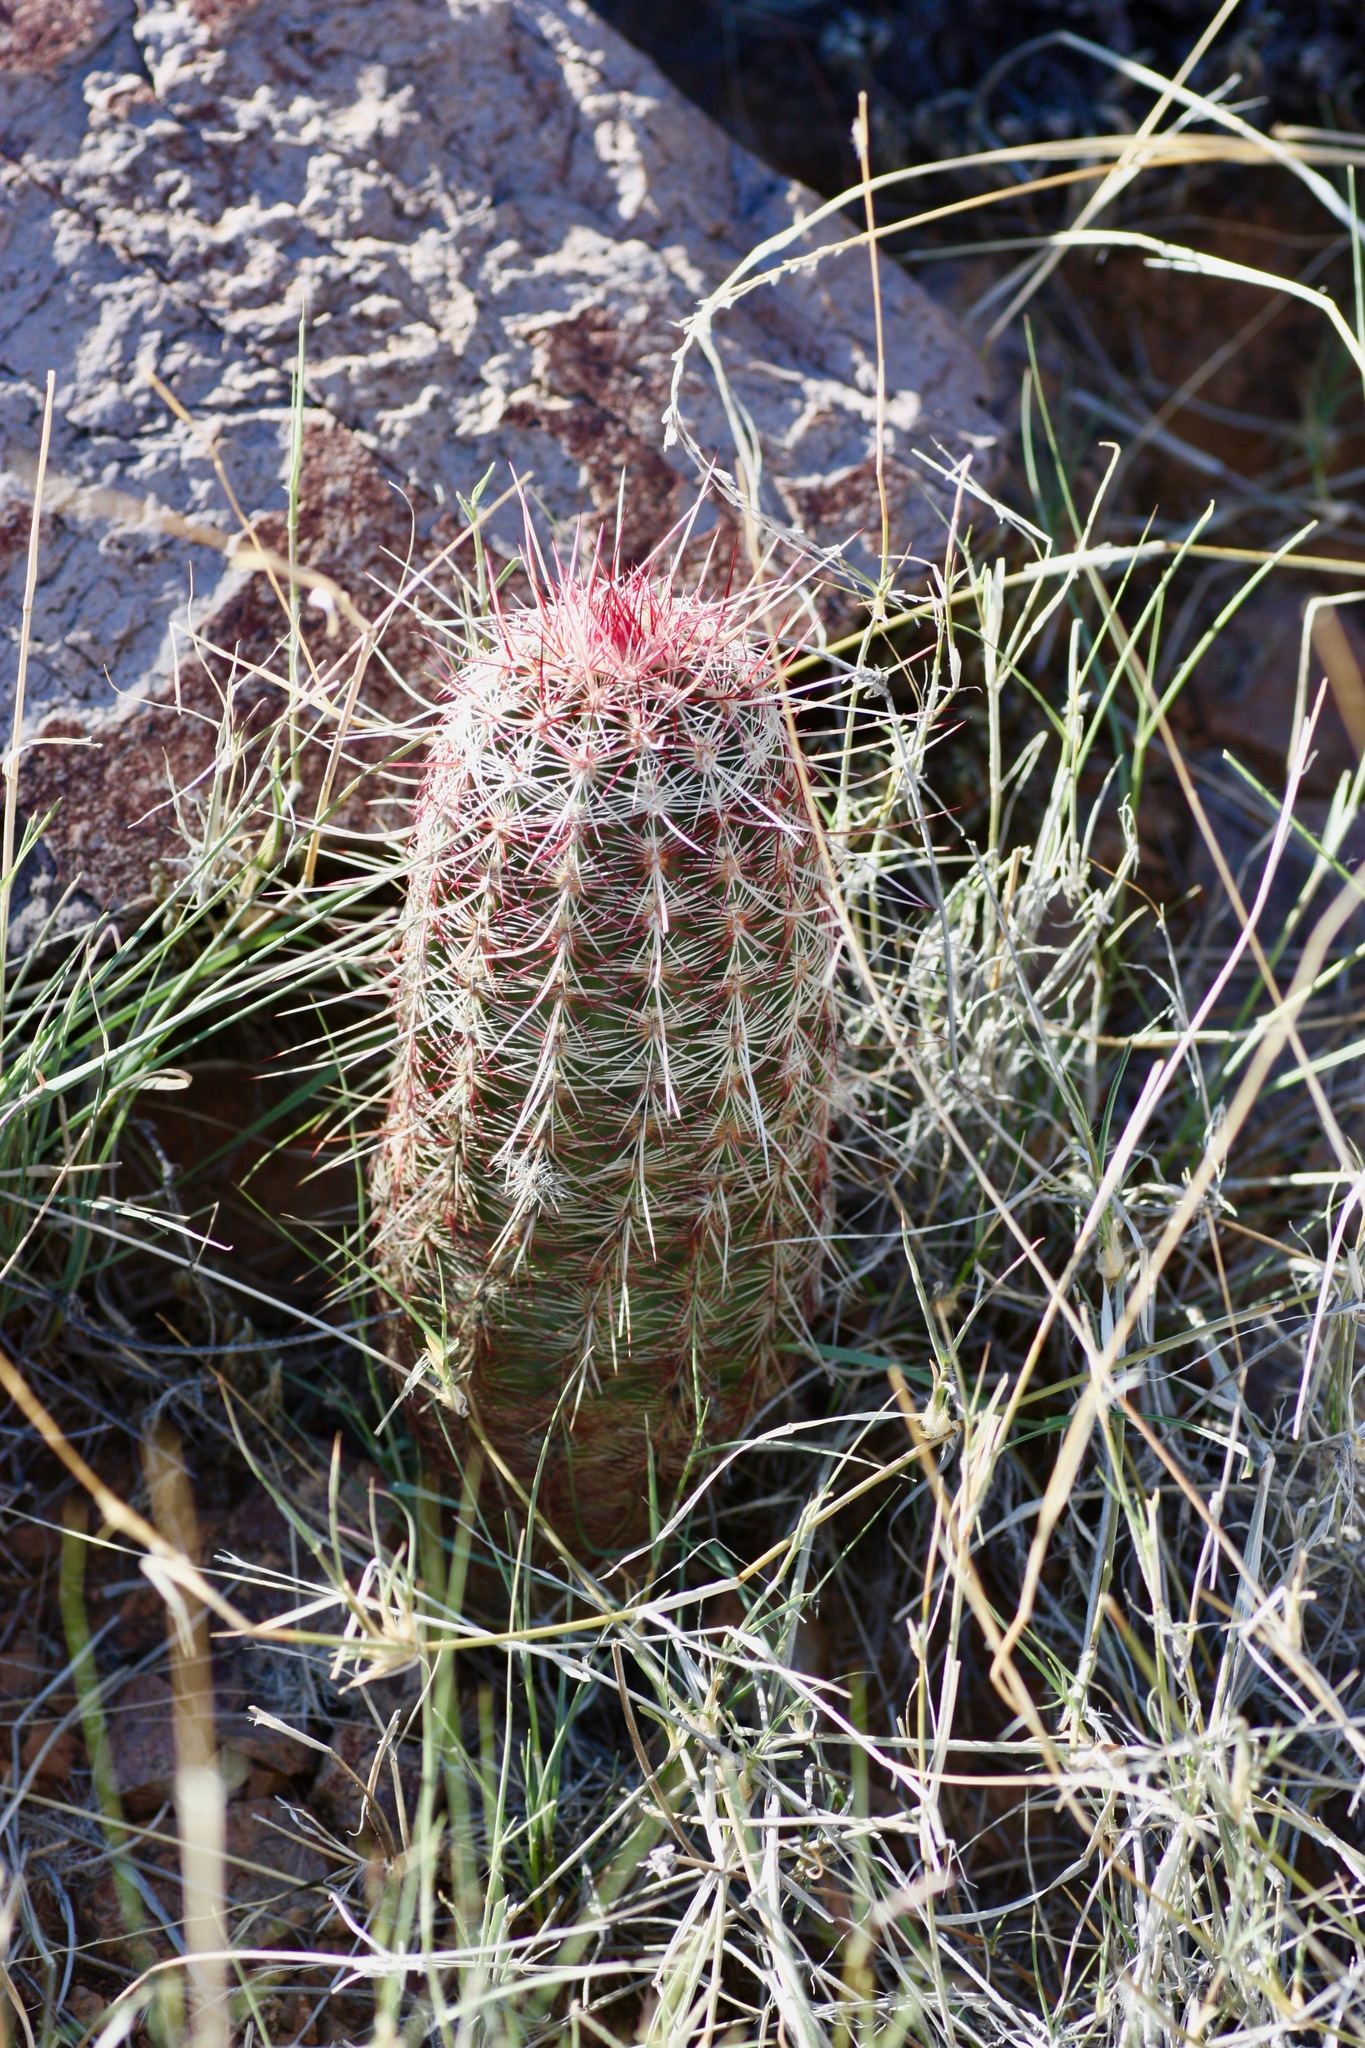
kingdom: Plantae
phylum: Tracheophyta
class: Magnoliopsida
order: Caryophyllales
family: Cactaceae
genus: Echinocereus
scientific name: Echinocereus viridiflorus
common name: Nylon hedgehog cactus
